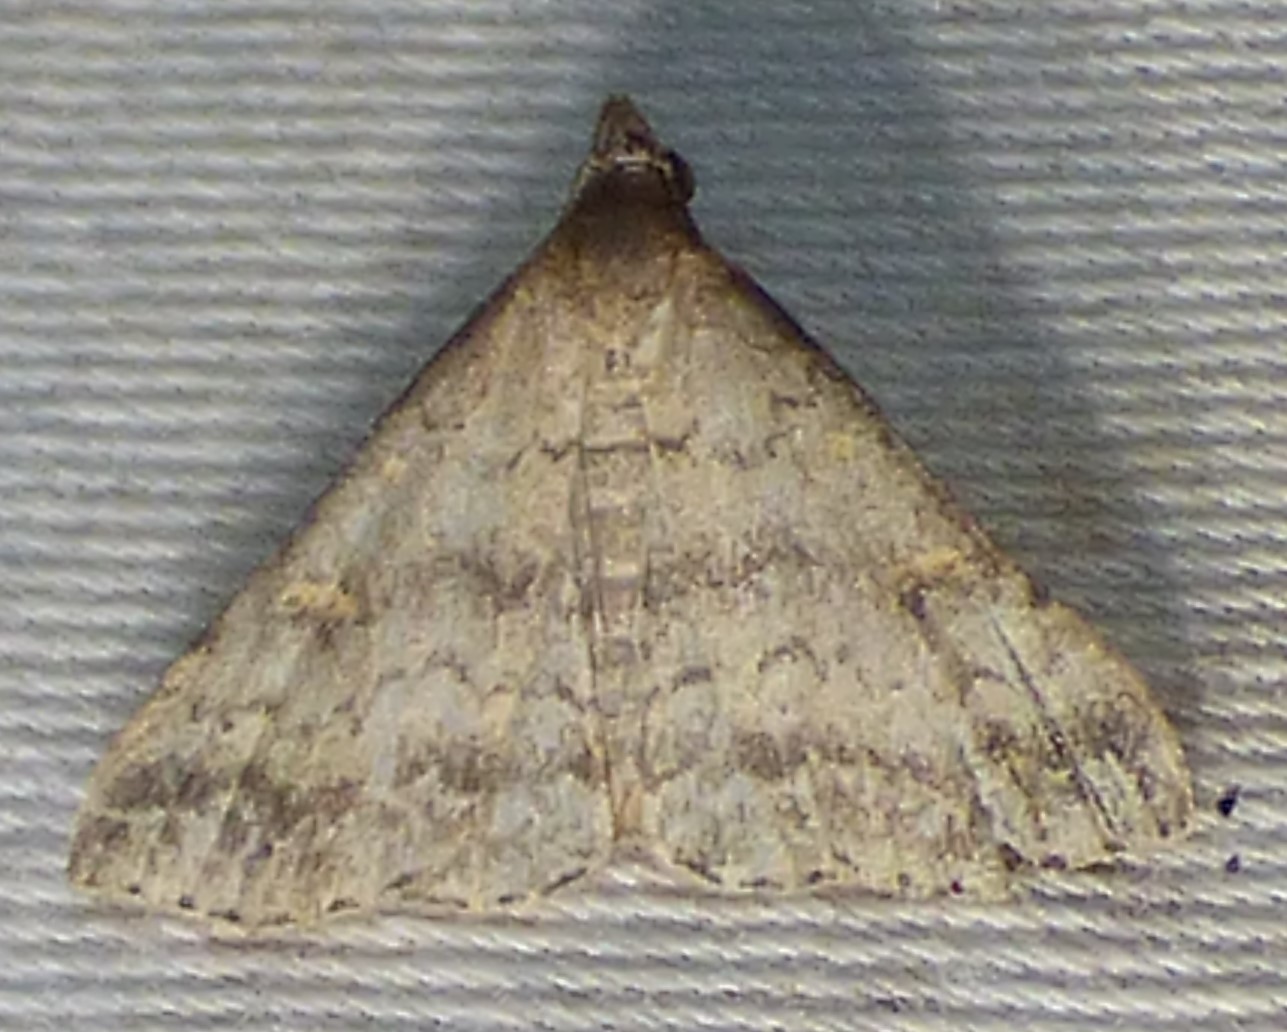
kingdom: Animalia
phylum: Arthropoda
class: Insecta
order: Lepidoptera
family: Erebidae
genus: Tetanolita
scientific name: Tetanolita floridana
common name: Florida tetanolita moth
